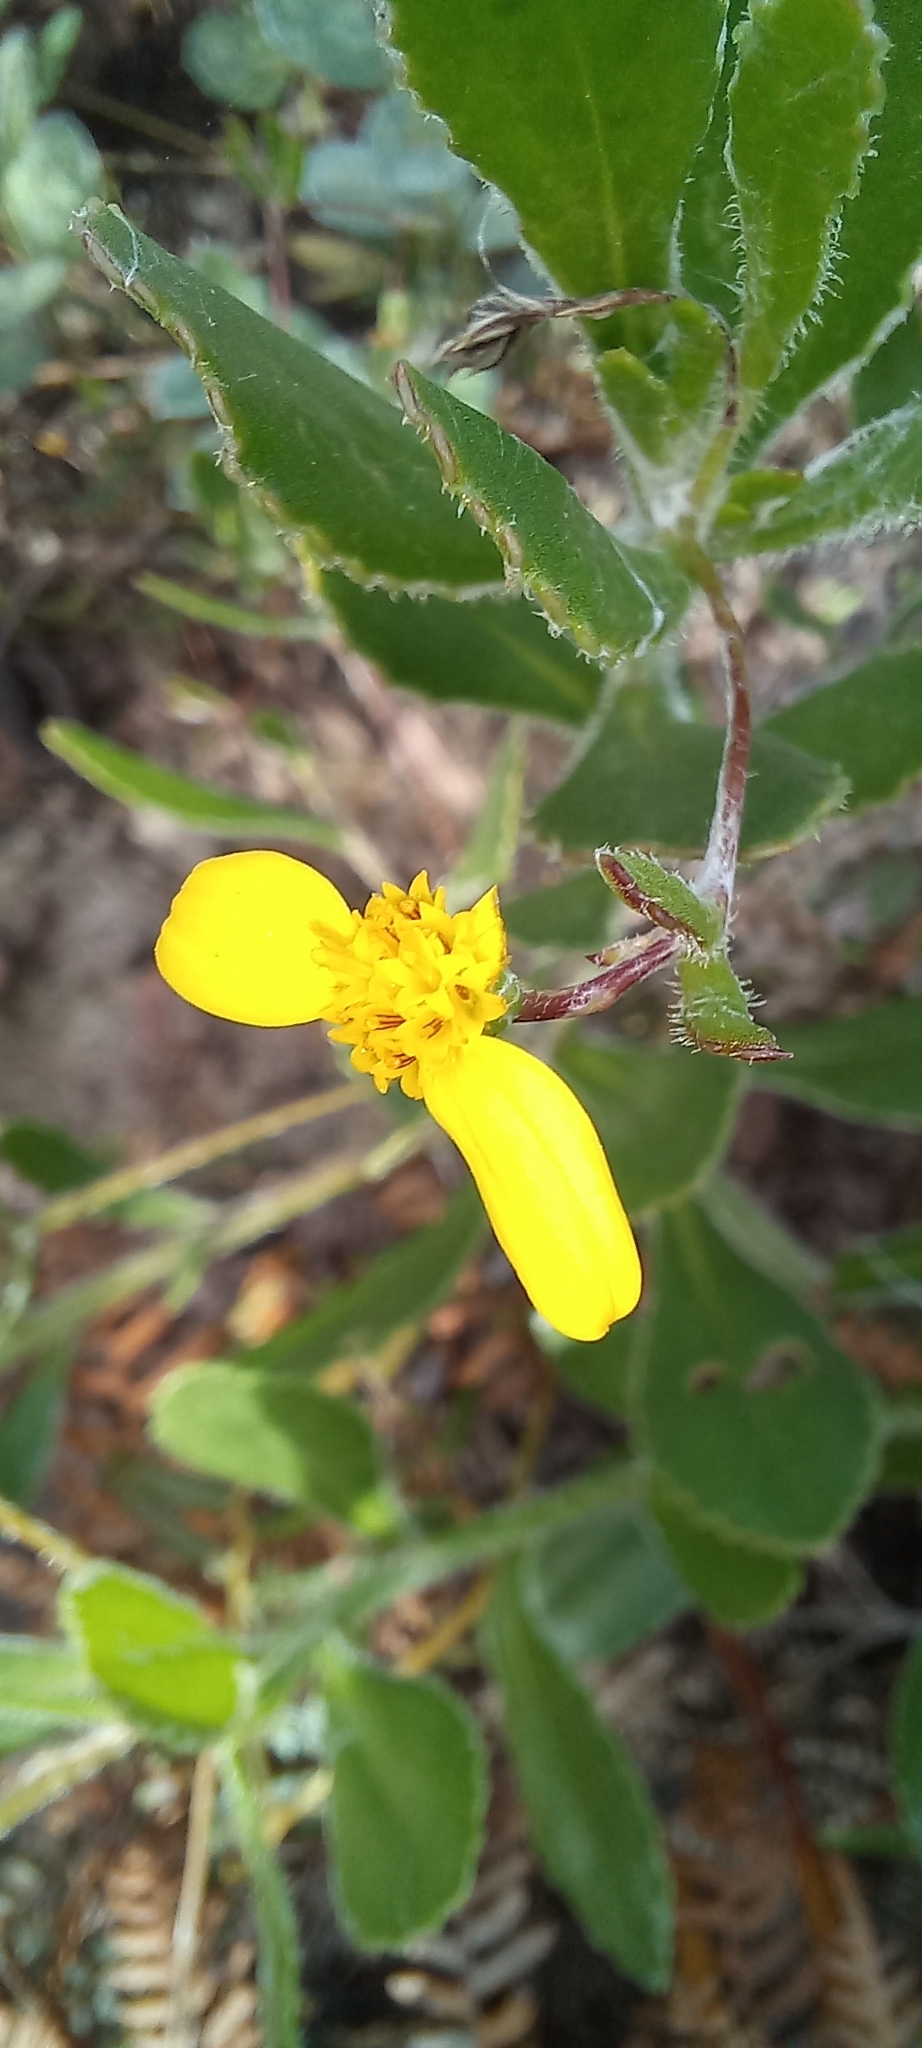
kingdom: Plantae
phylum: Tracheophyta
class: Magnoliopsida
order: Asterales
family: Asteraceae
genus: Osteospermum
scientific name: Osteospermum ciliatum
